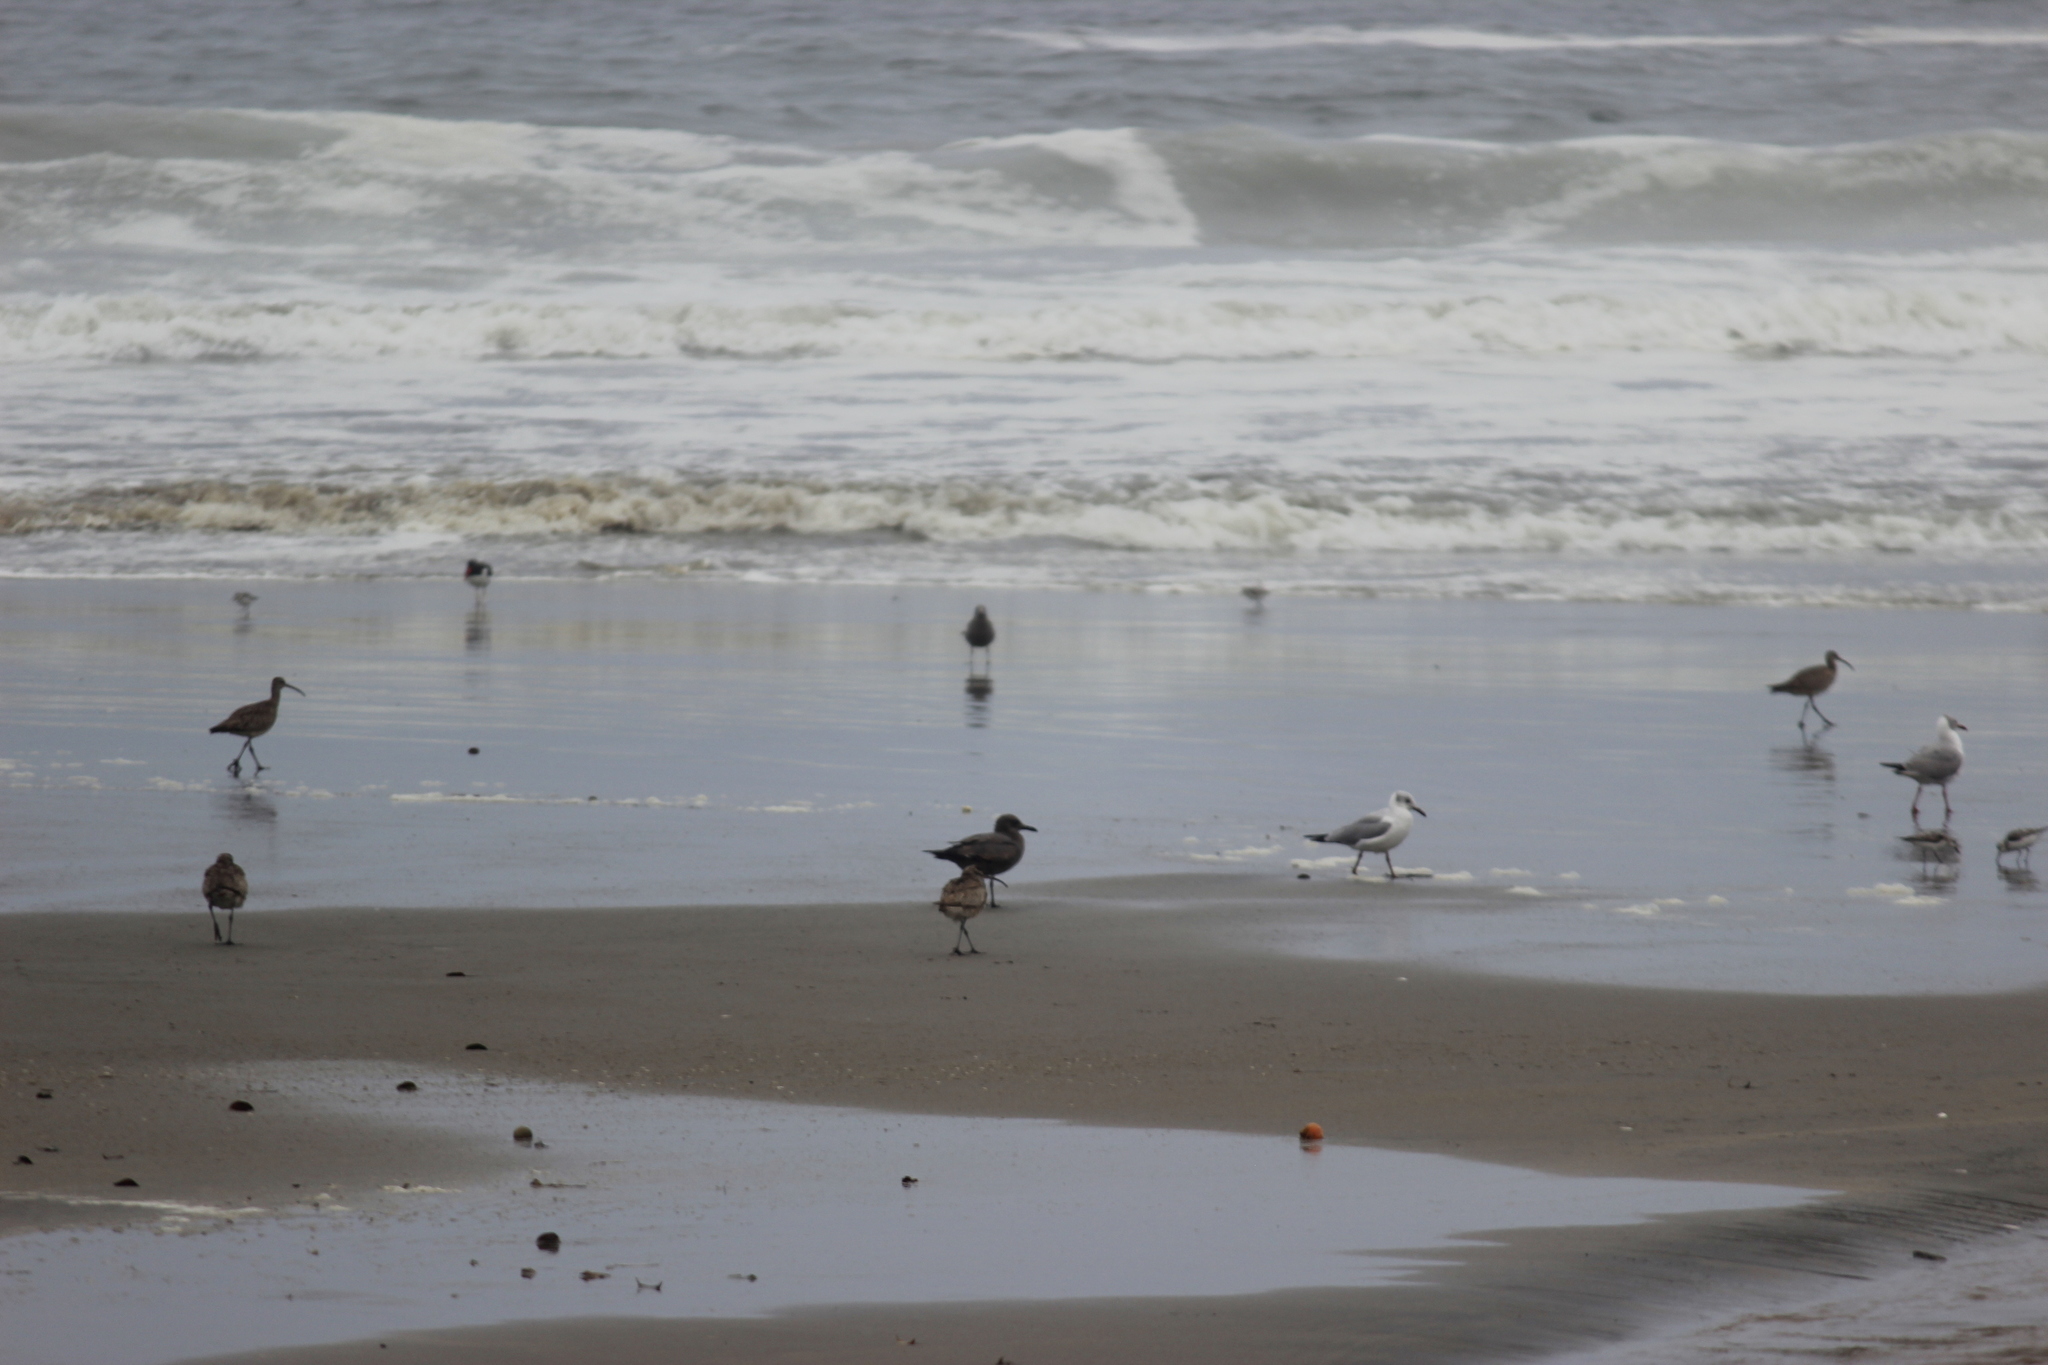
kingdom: Animalia
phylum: Chordata
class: Aves
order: Charadriiformes
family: Laridae
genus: Leucophaeus
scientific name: Leucophaeus modestus
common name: Gray gull
